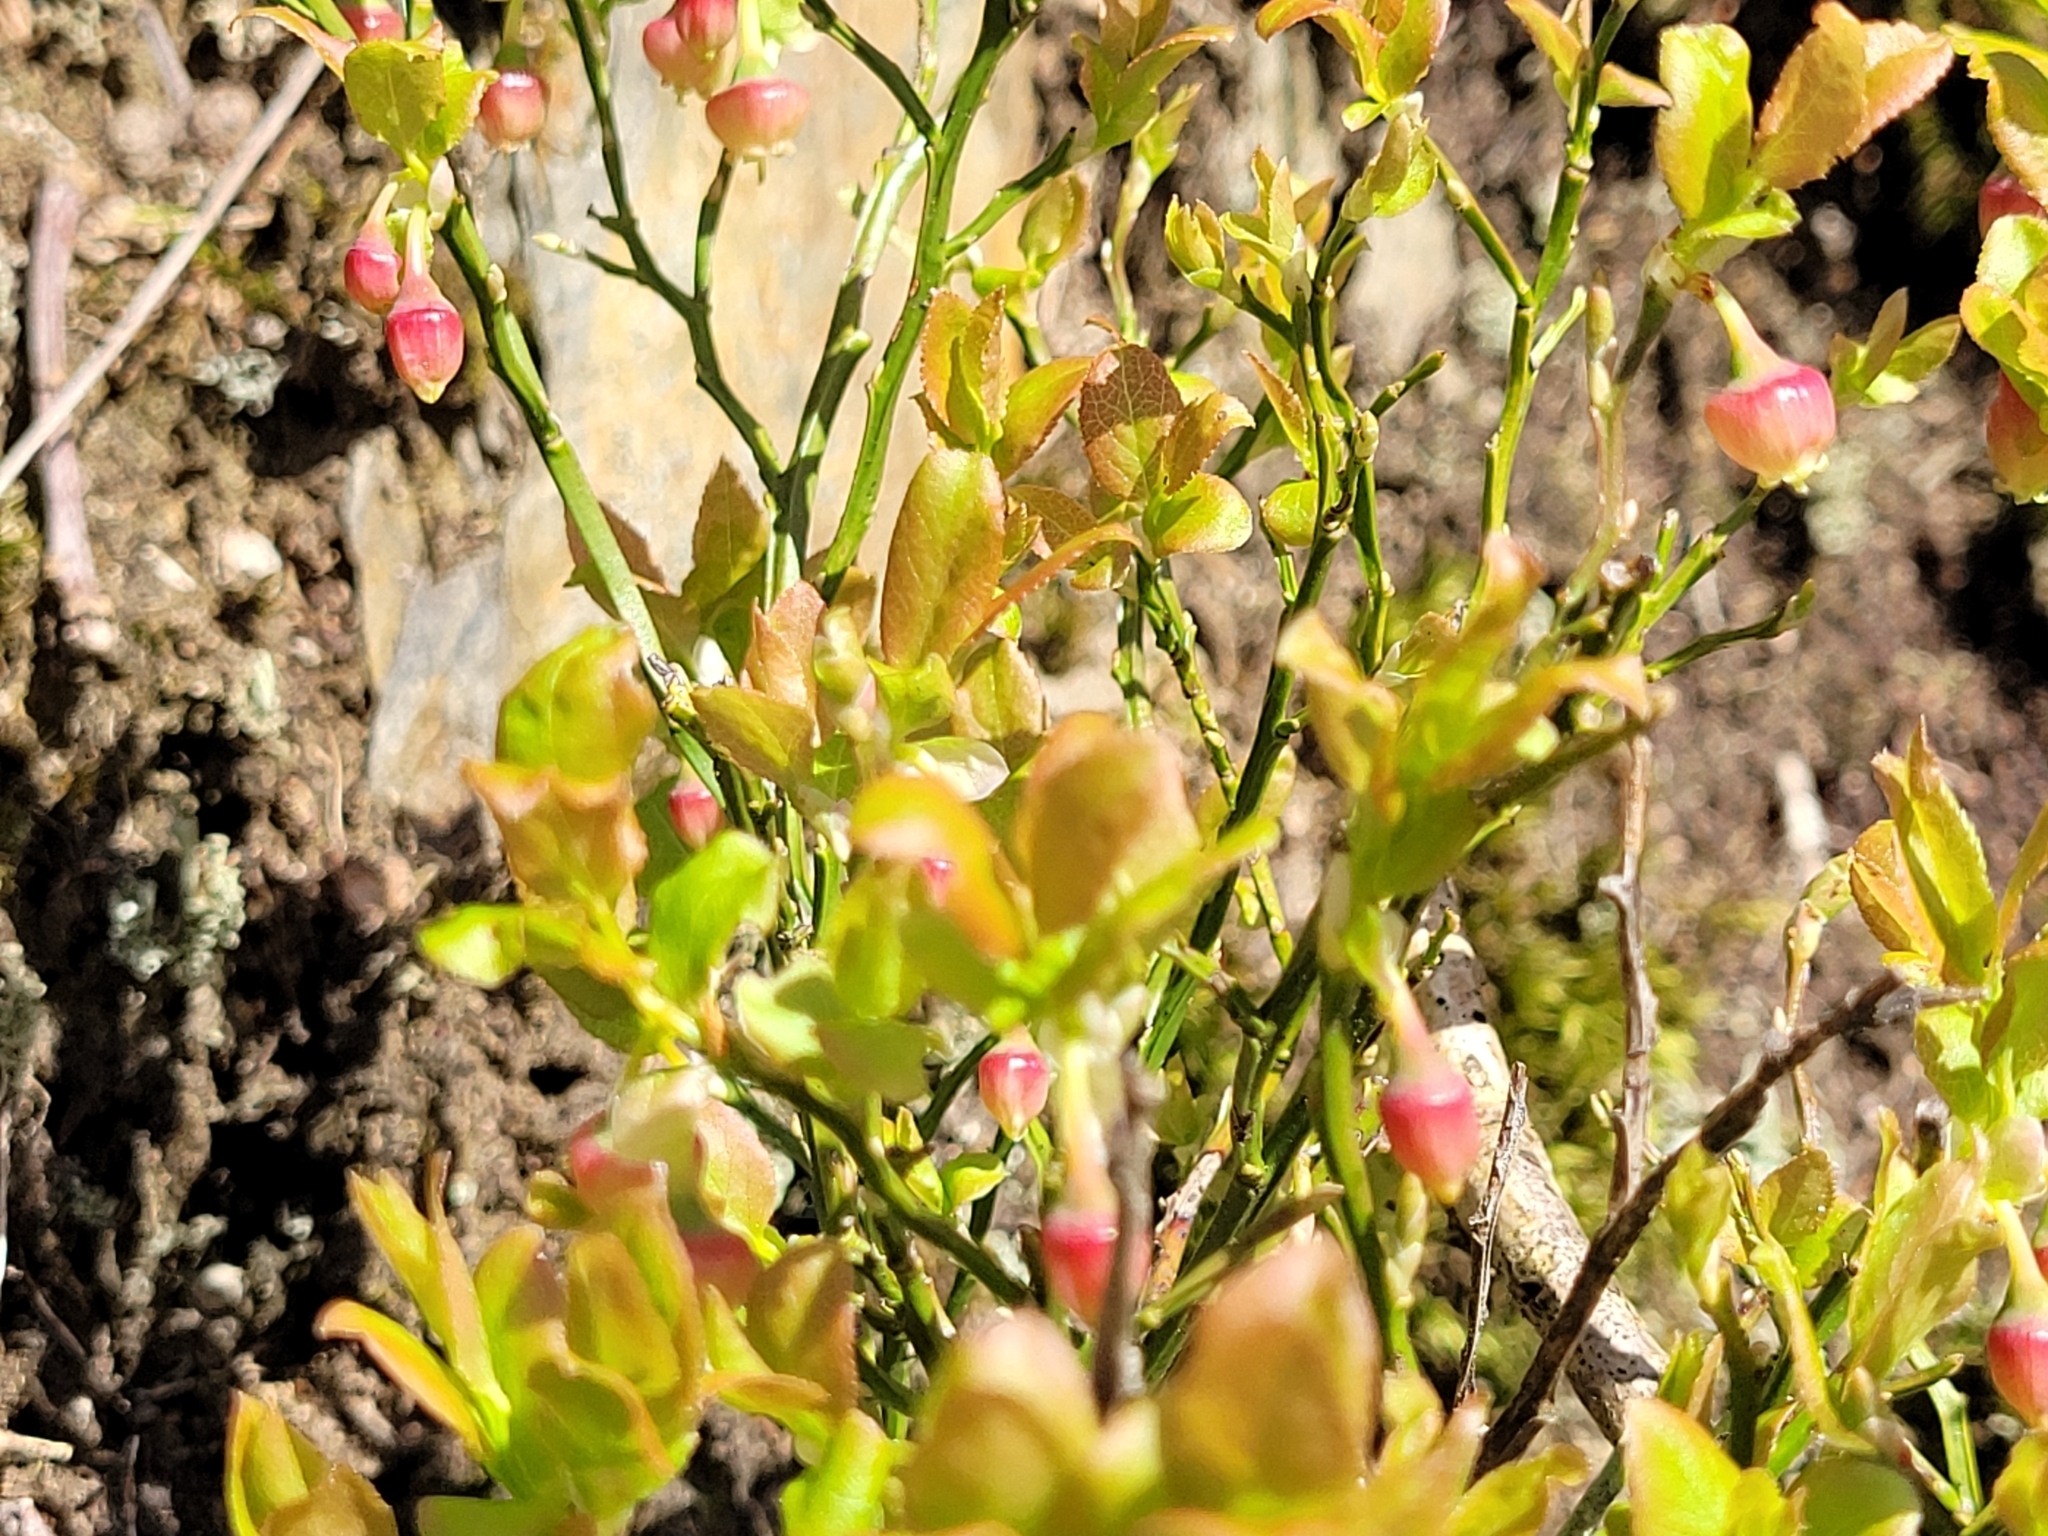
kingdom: Plantae
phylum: Tracheophyta
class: Magnoliopsida
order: Ericales
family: Ericaceae
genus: Vaccinium
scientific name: Vaccinium myrtillus
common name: Bilberry
